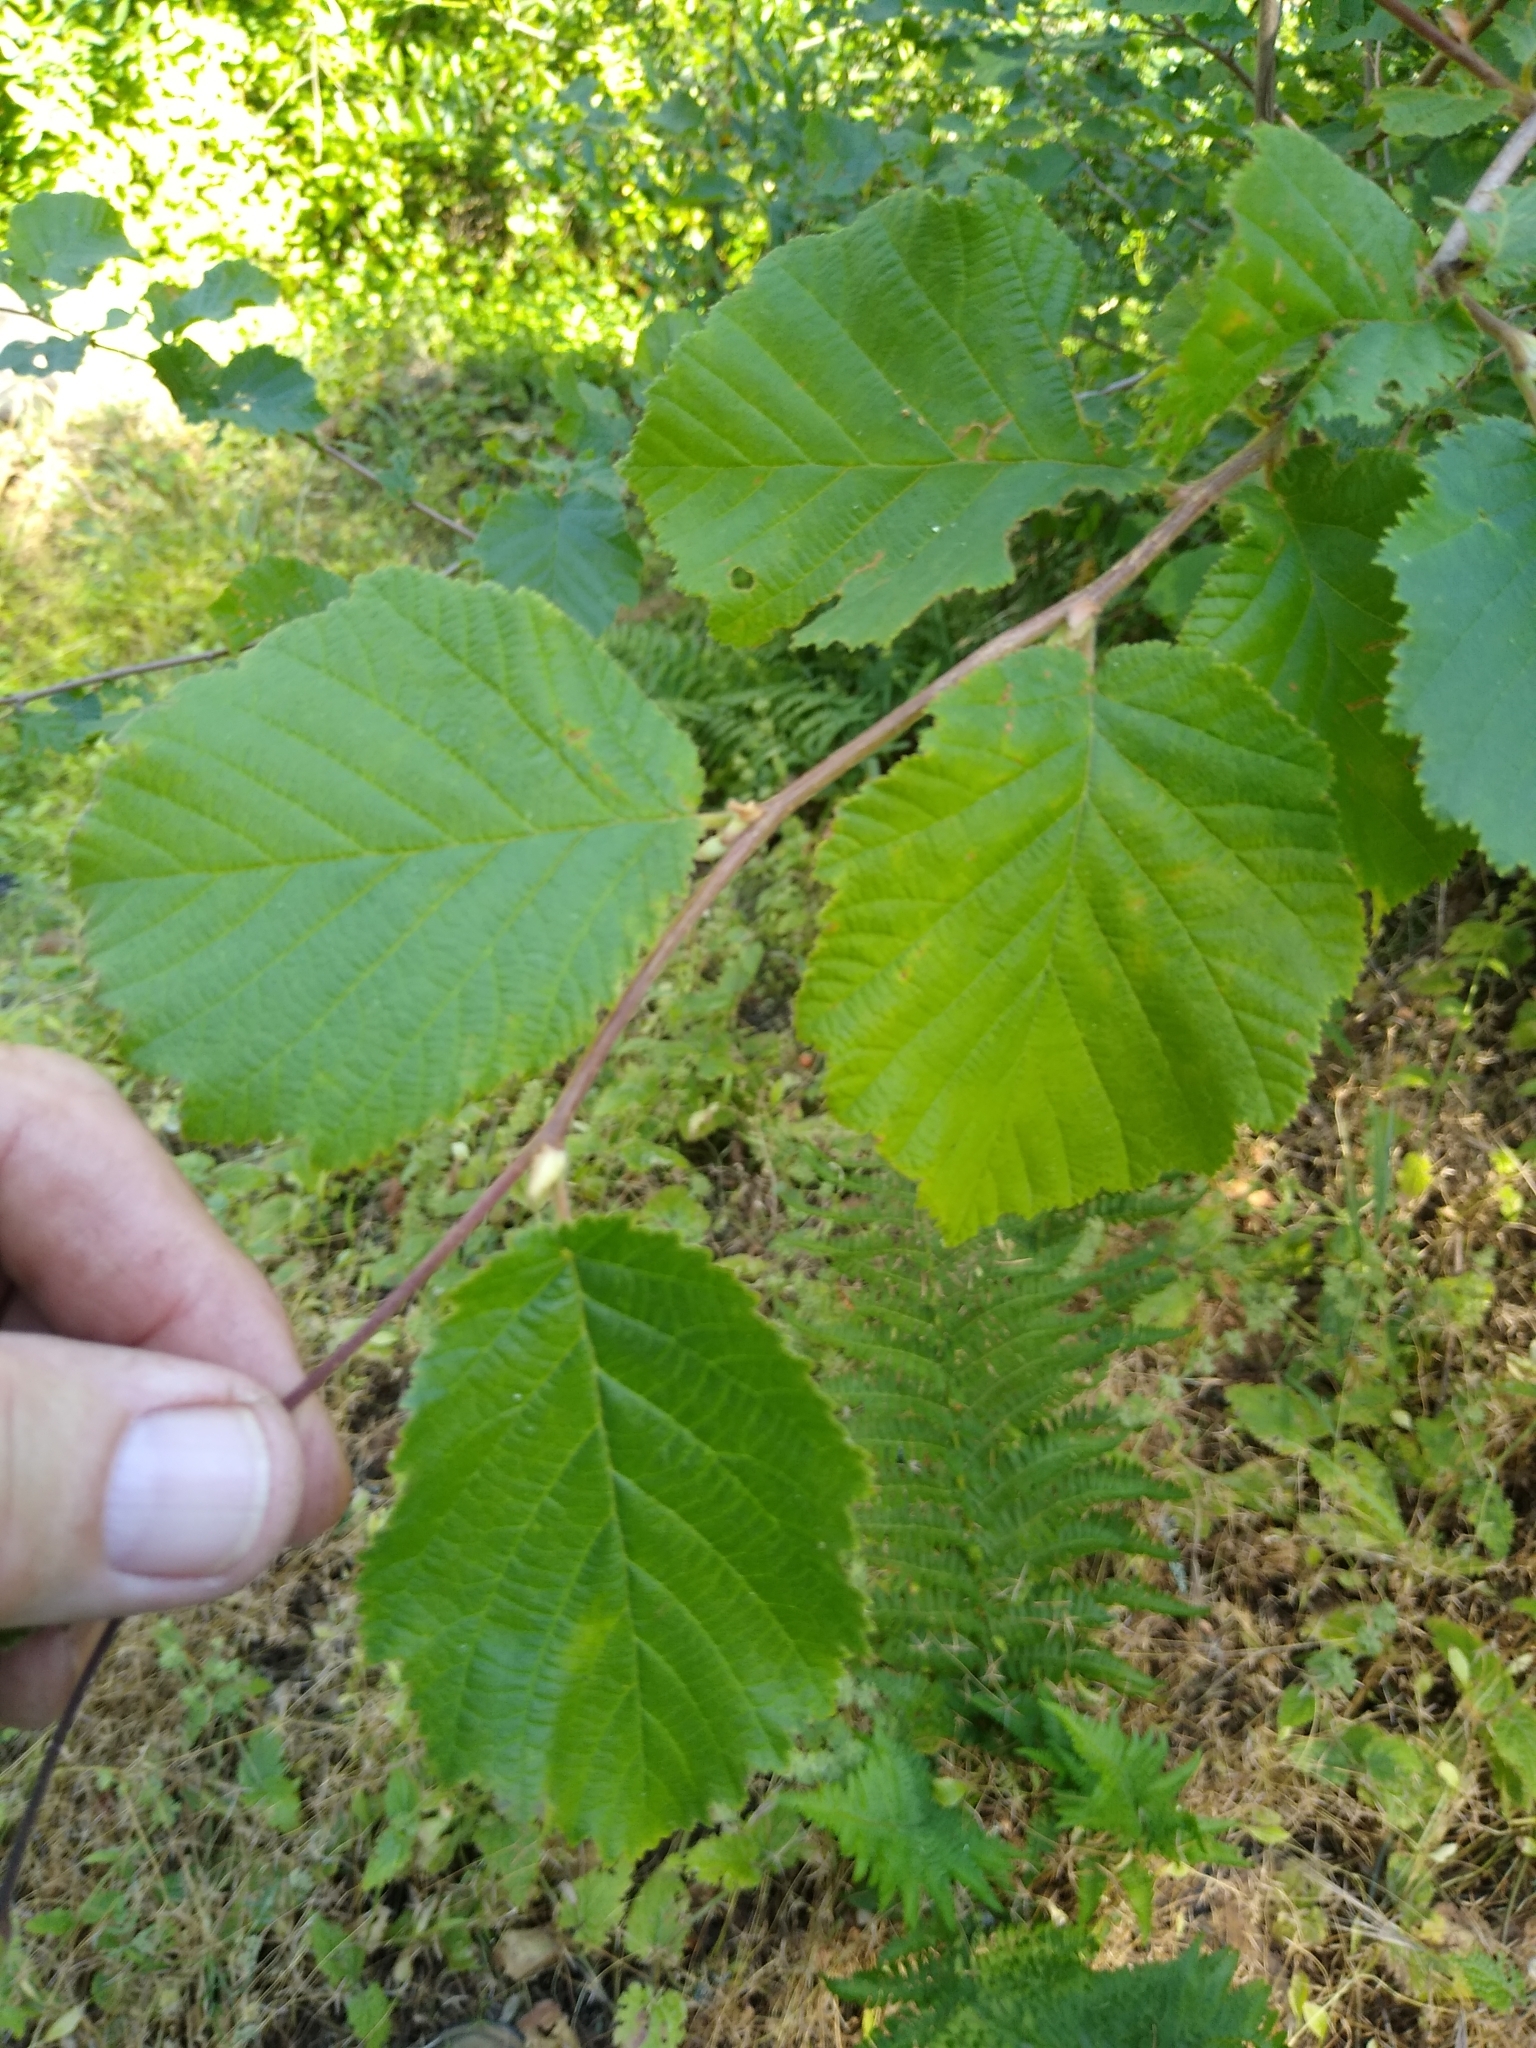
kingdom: Plantae
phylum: Tracheophyta
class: Magnoliopsida
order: Fagales
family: Betulaceae
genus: Corylus
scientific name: Corylus cornuta
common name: Beaked hazel
